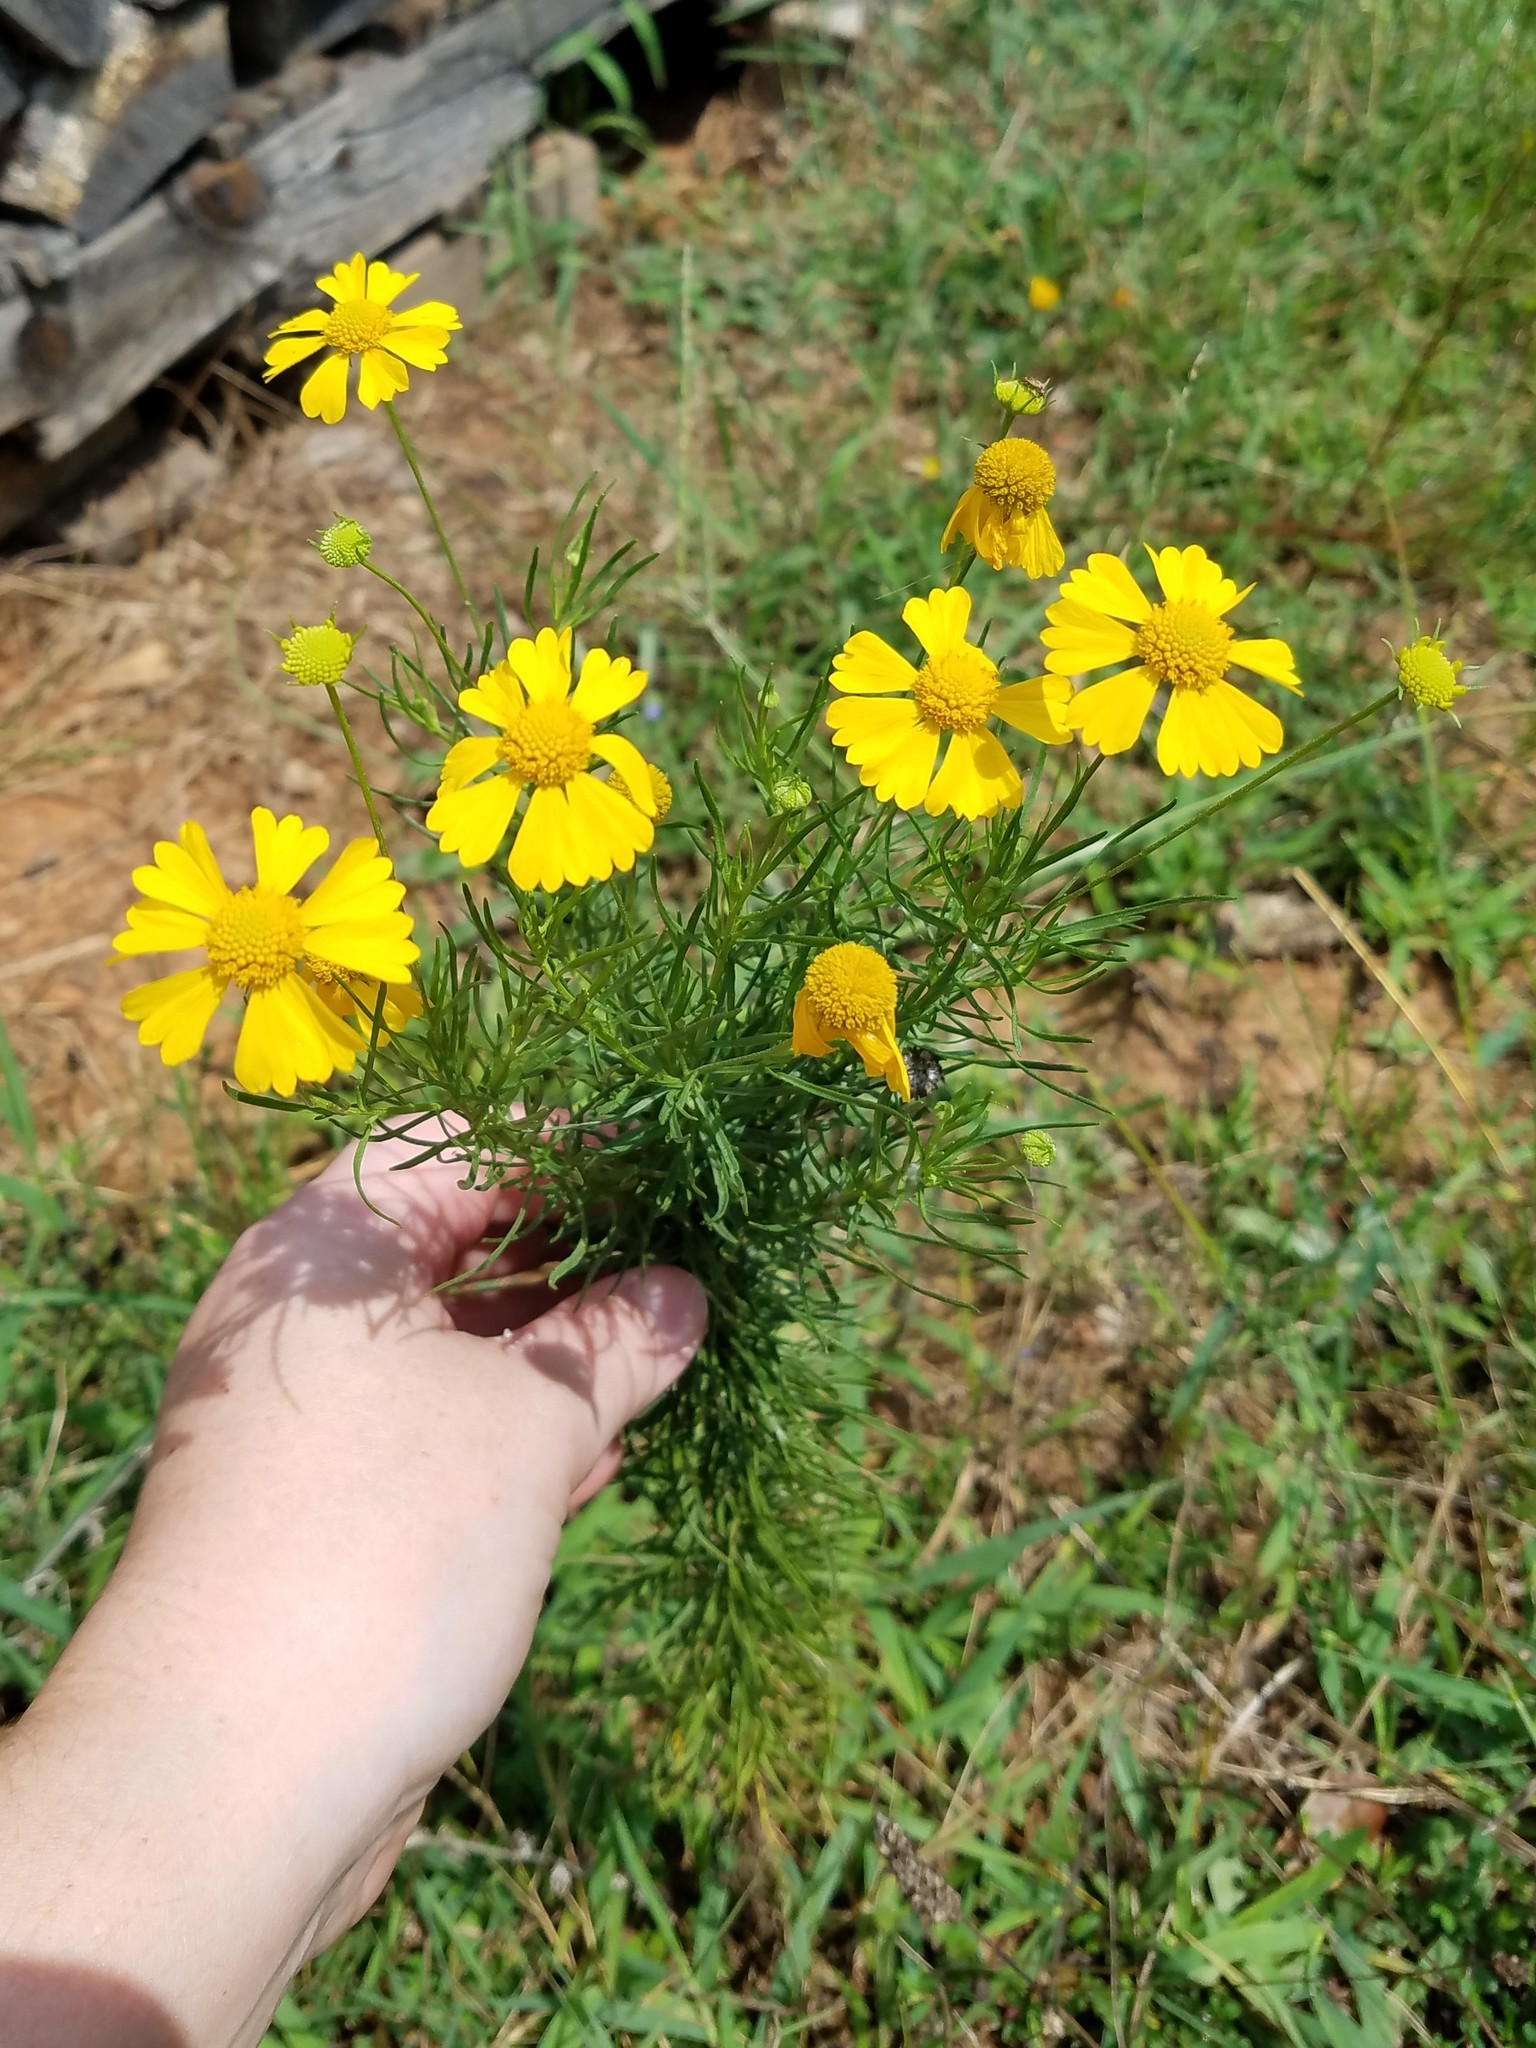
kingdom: Plantae
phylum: Tracheophyta
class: Magnoliopsida
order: Asterales
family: Asteraceae
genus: Helenium
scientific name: Helenium amarum
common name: Bitter sneezeweed
